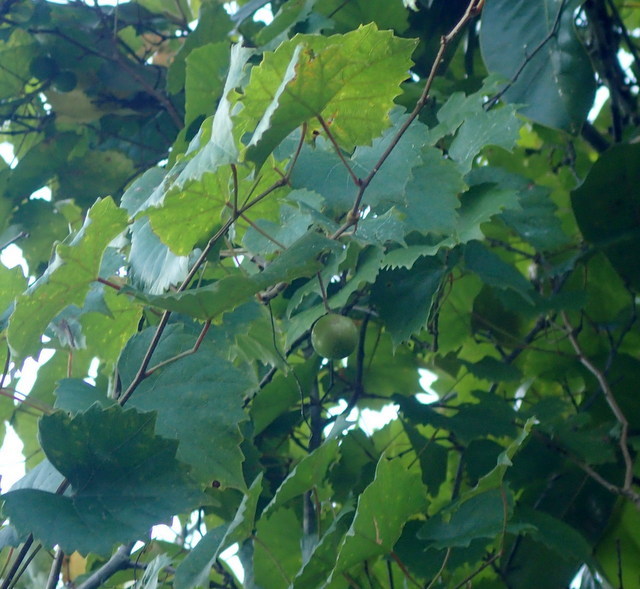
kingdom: Plantae
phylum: Tracheophyta
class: Magnoliopsida
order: Vitales
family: Vitaceae
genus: Vitis
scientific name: Vitis rotundifolia
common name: Muscadine grape
